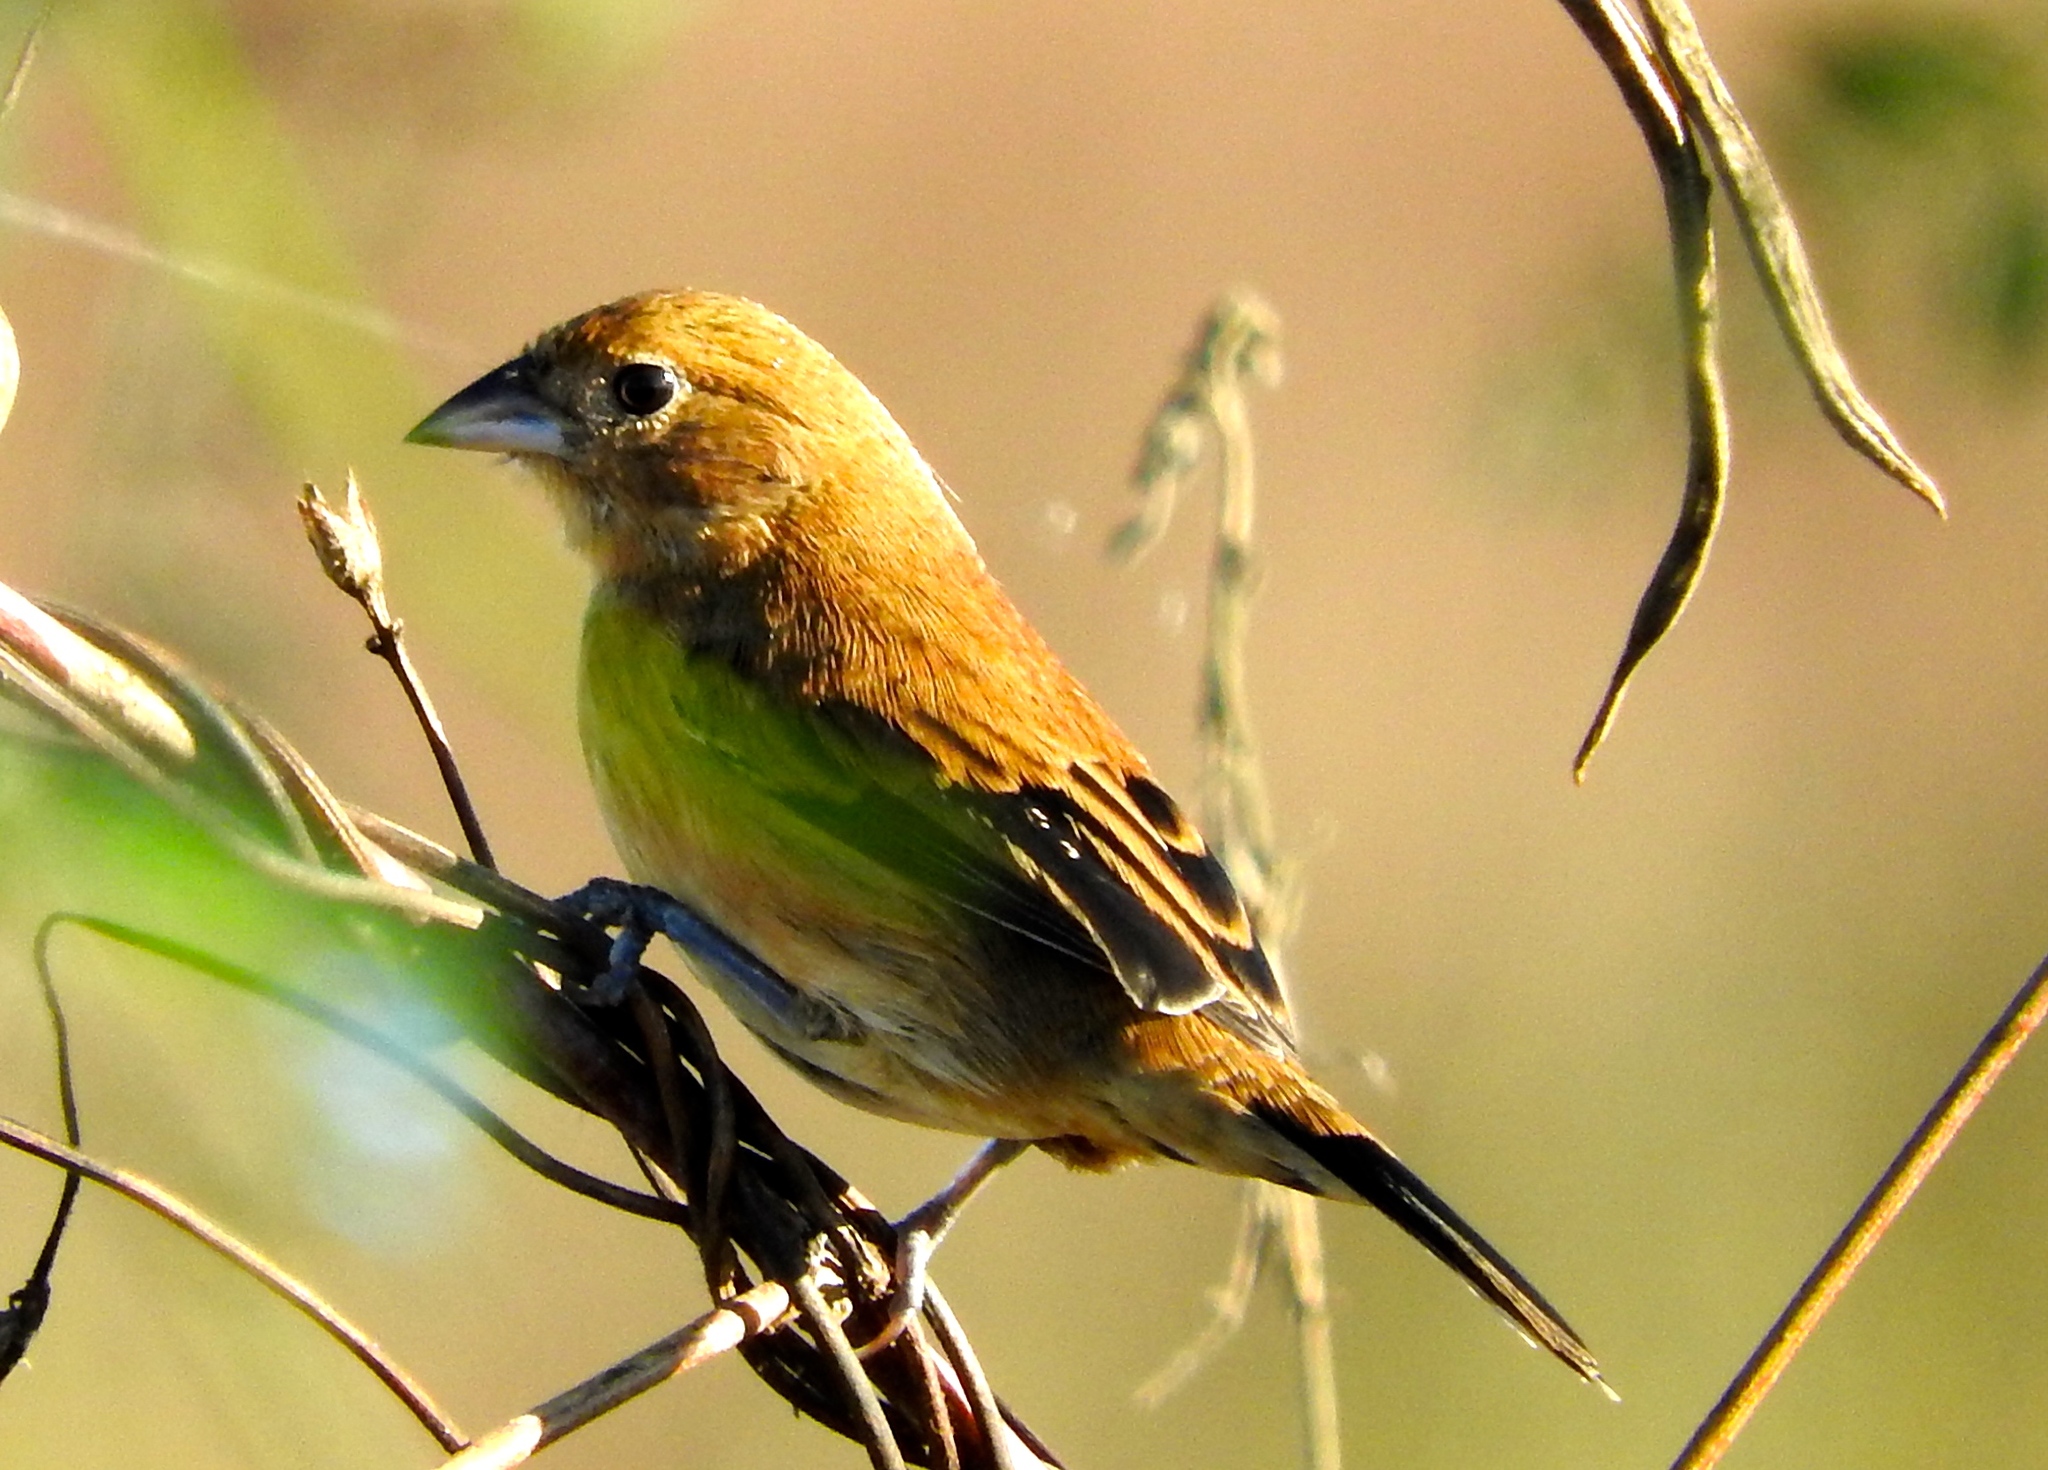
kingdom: Animalia
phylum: Chordata
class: Aves
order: Passeriformes
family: Thraupidae
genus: Volatinia
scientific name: Volatinia jacarina
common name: Blue-black grassquit
